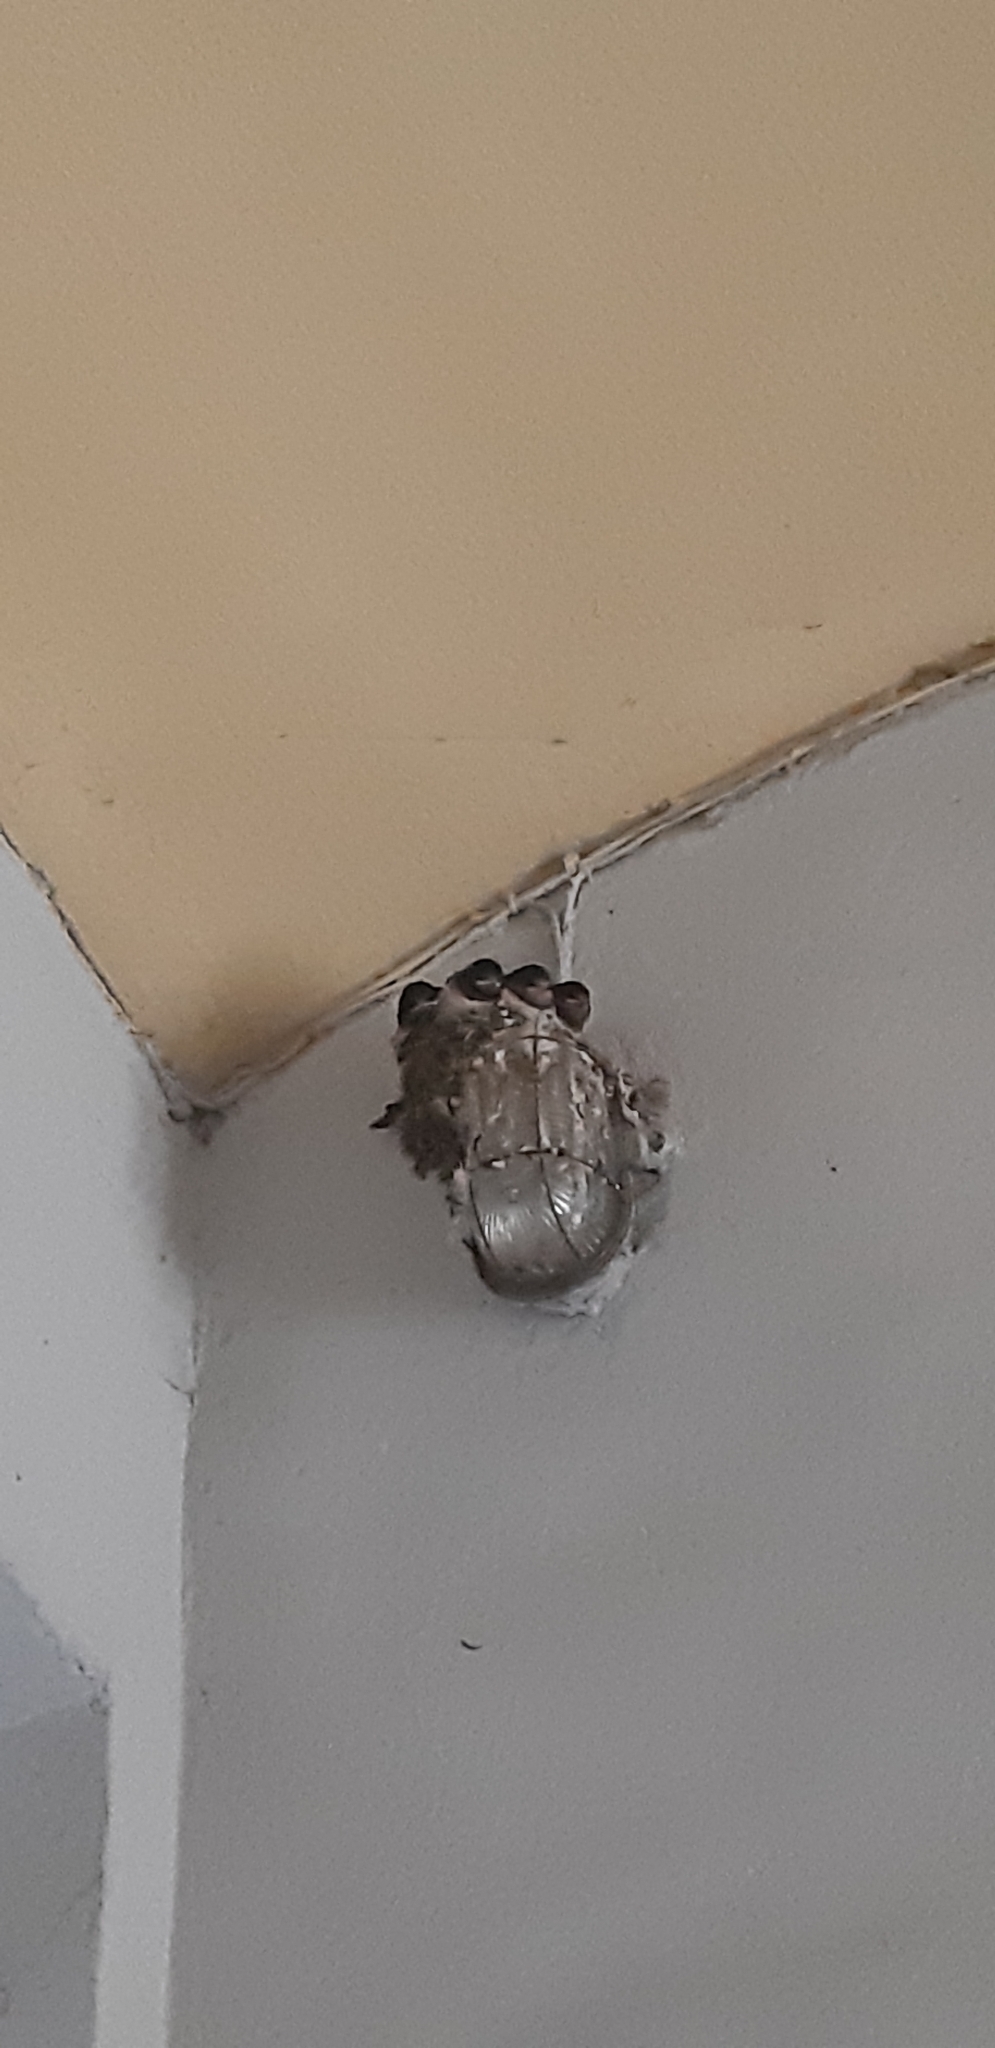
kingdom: Animalia
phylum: Chordata
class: Aves
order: Passeriformes
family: Hirundinidae
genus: Hirundo
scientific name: Hirundo rustica
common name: Barn swallow
